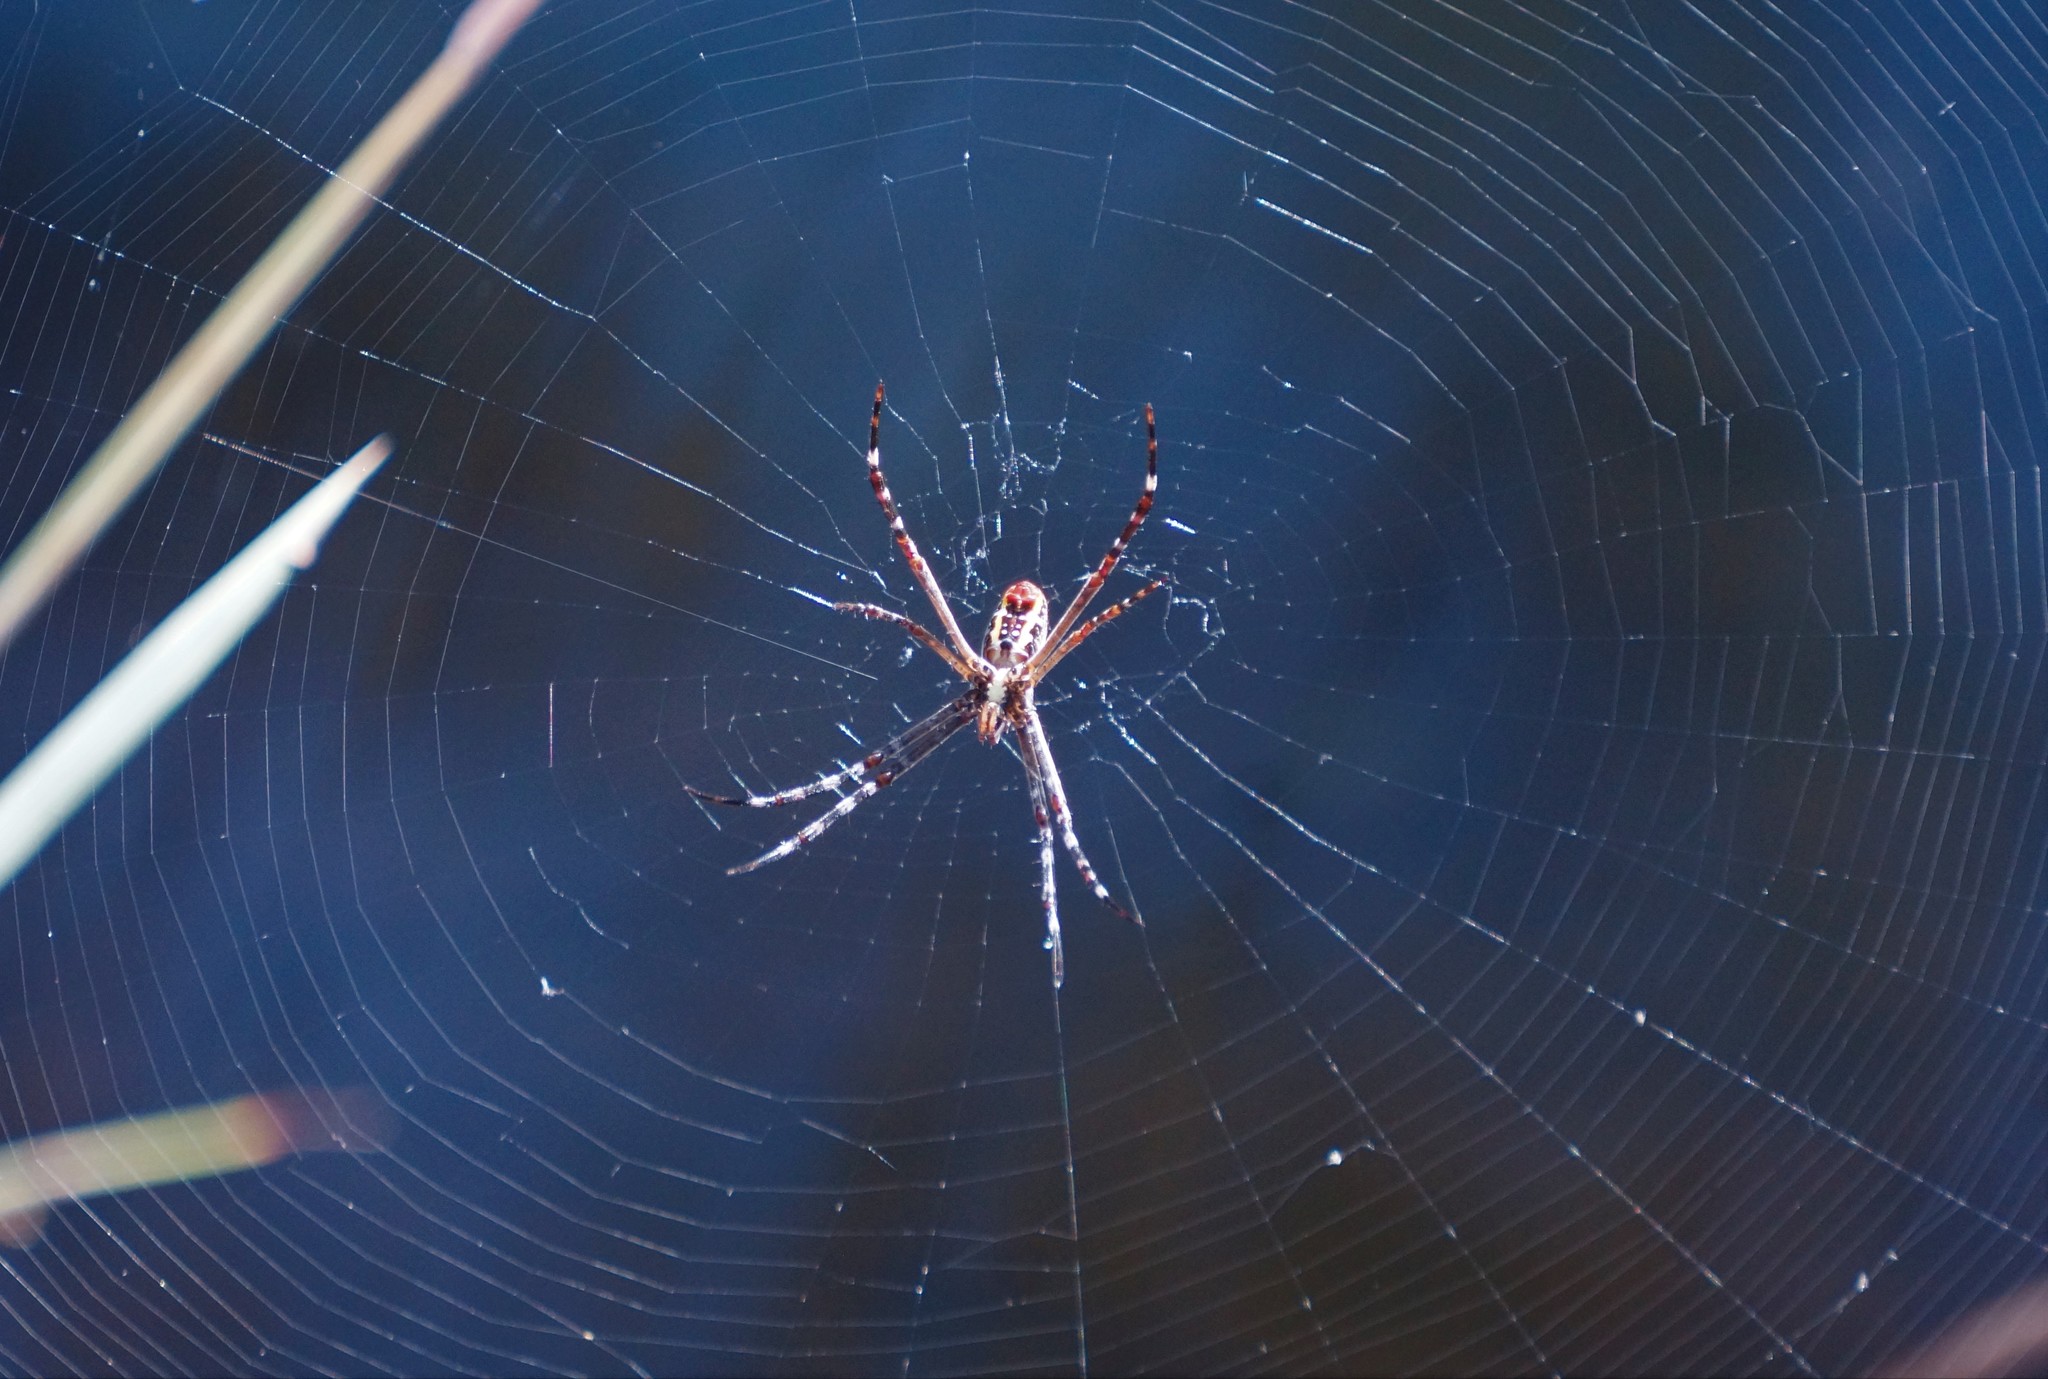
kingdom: Animalia
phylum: Arthropoda
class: Arachnida
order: Araneae
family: Araneidae
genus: Argiope
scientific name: Argiope radon
